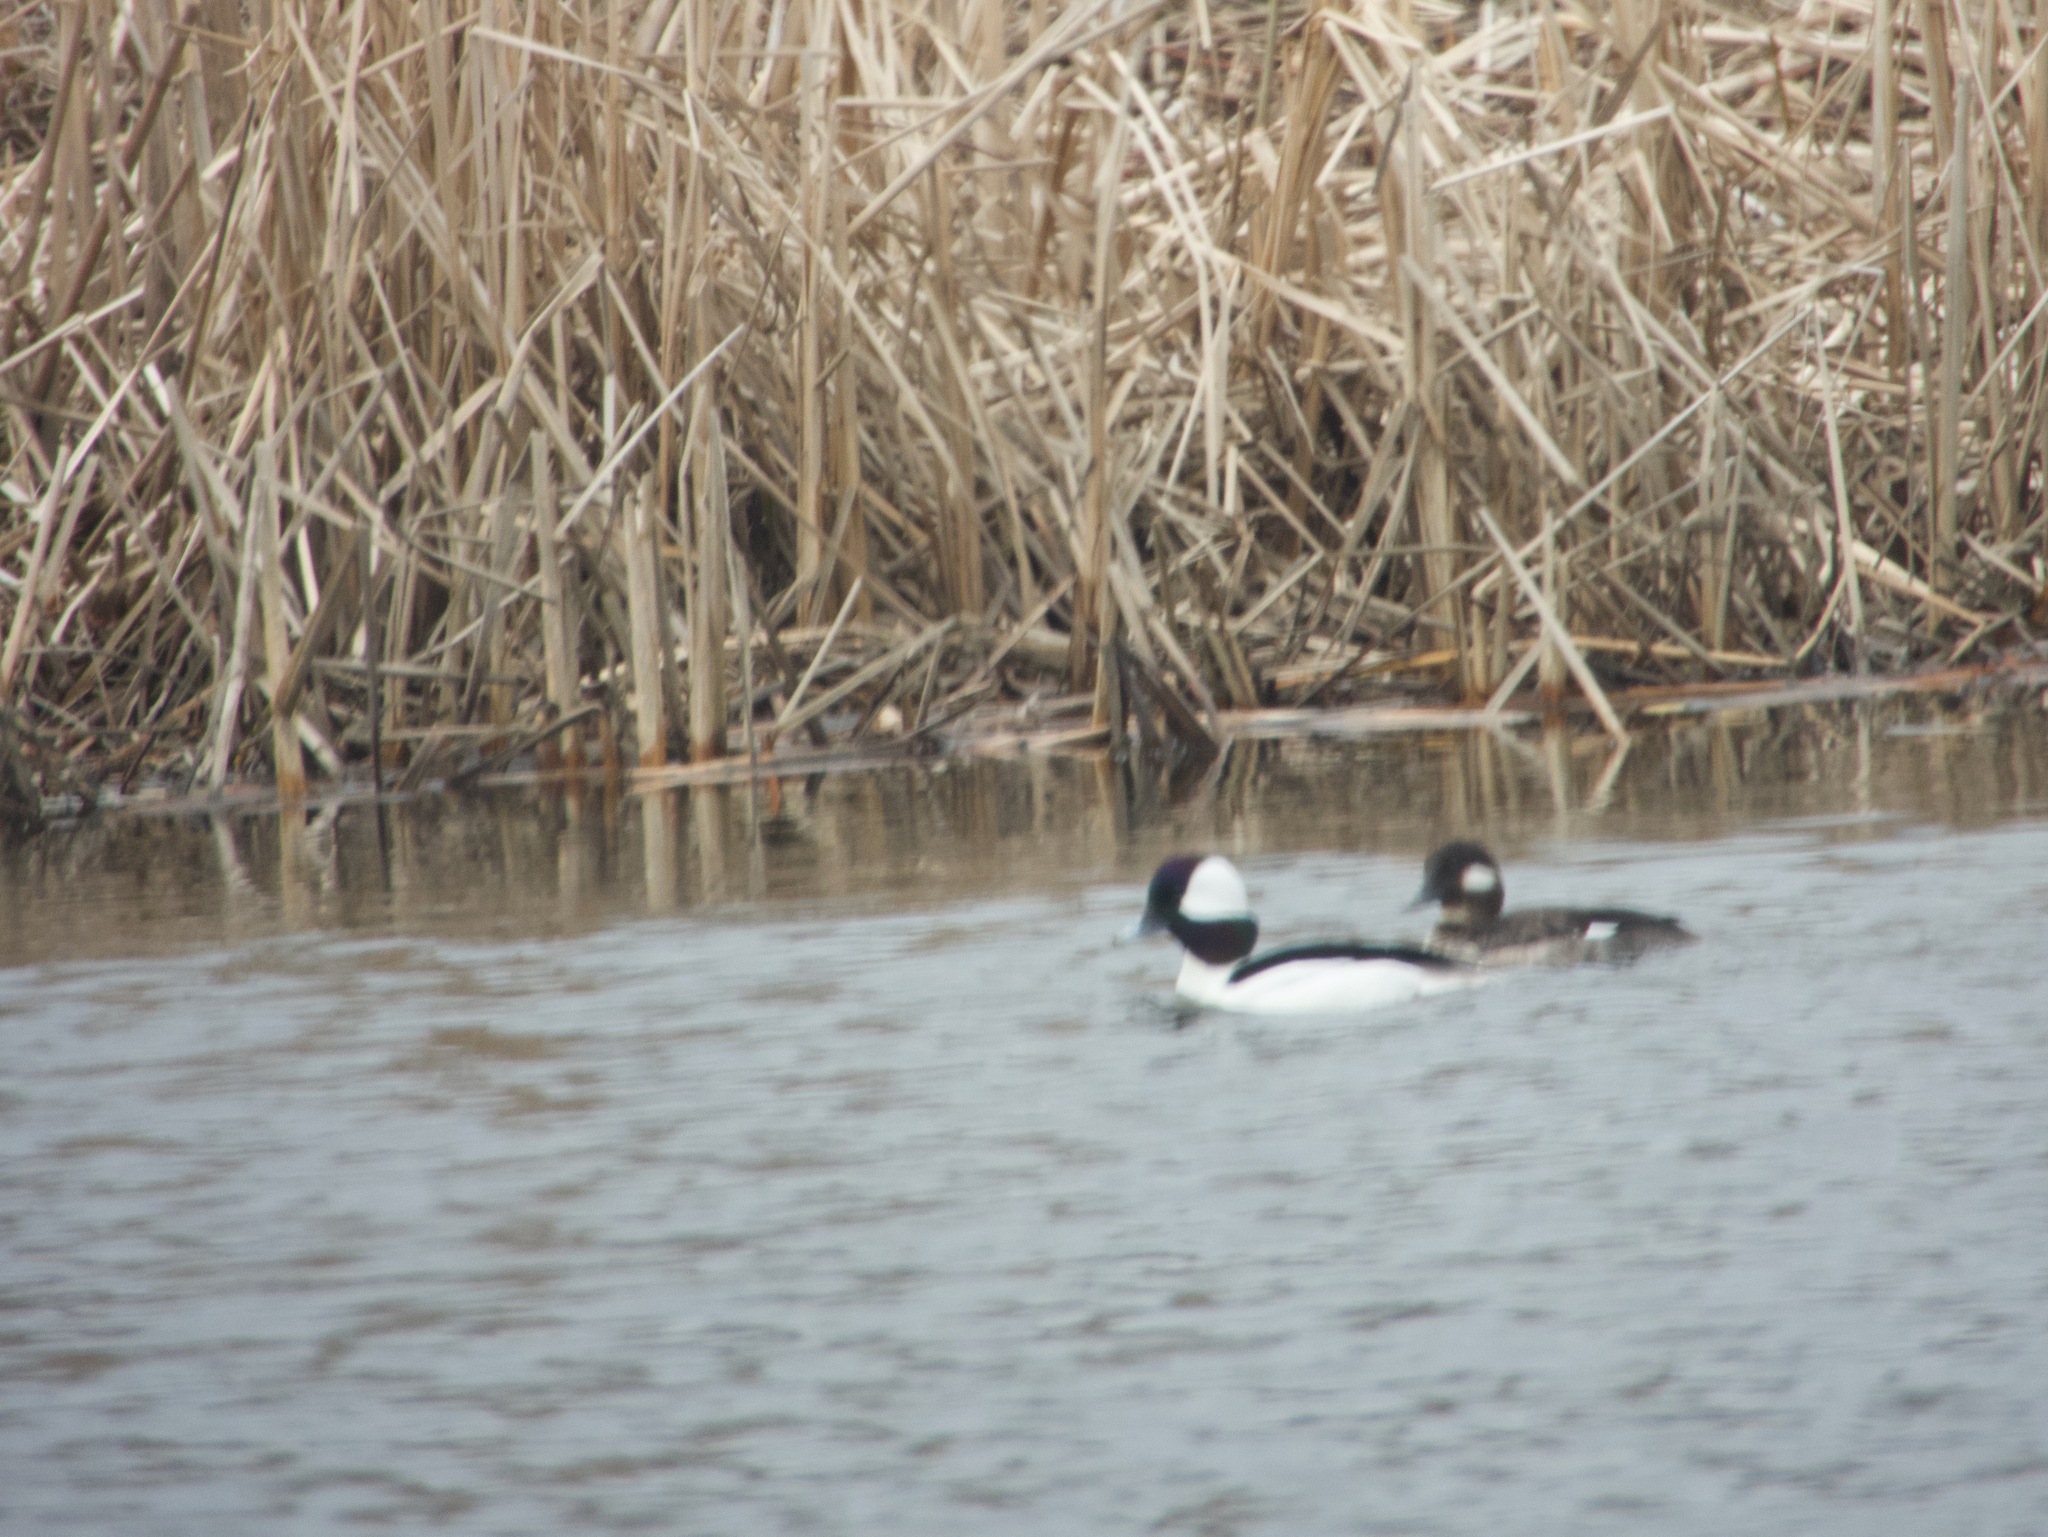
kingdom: Animalia
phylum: Chordata
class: Aves
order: Anseriformes
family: Anatidae
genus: Bucephala
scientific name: Bucephala albeola
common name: Bufflehead
